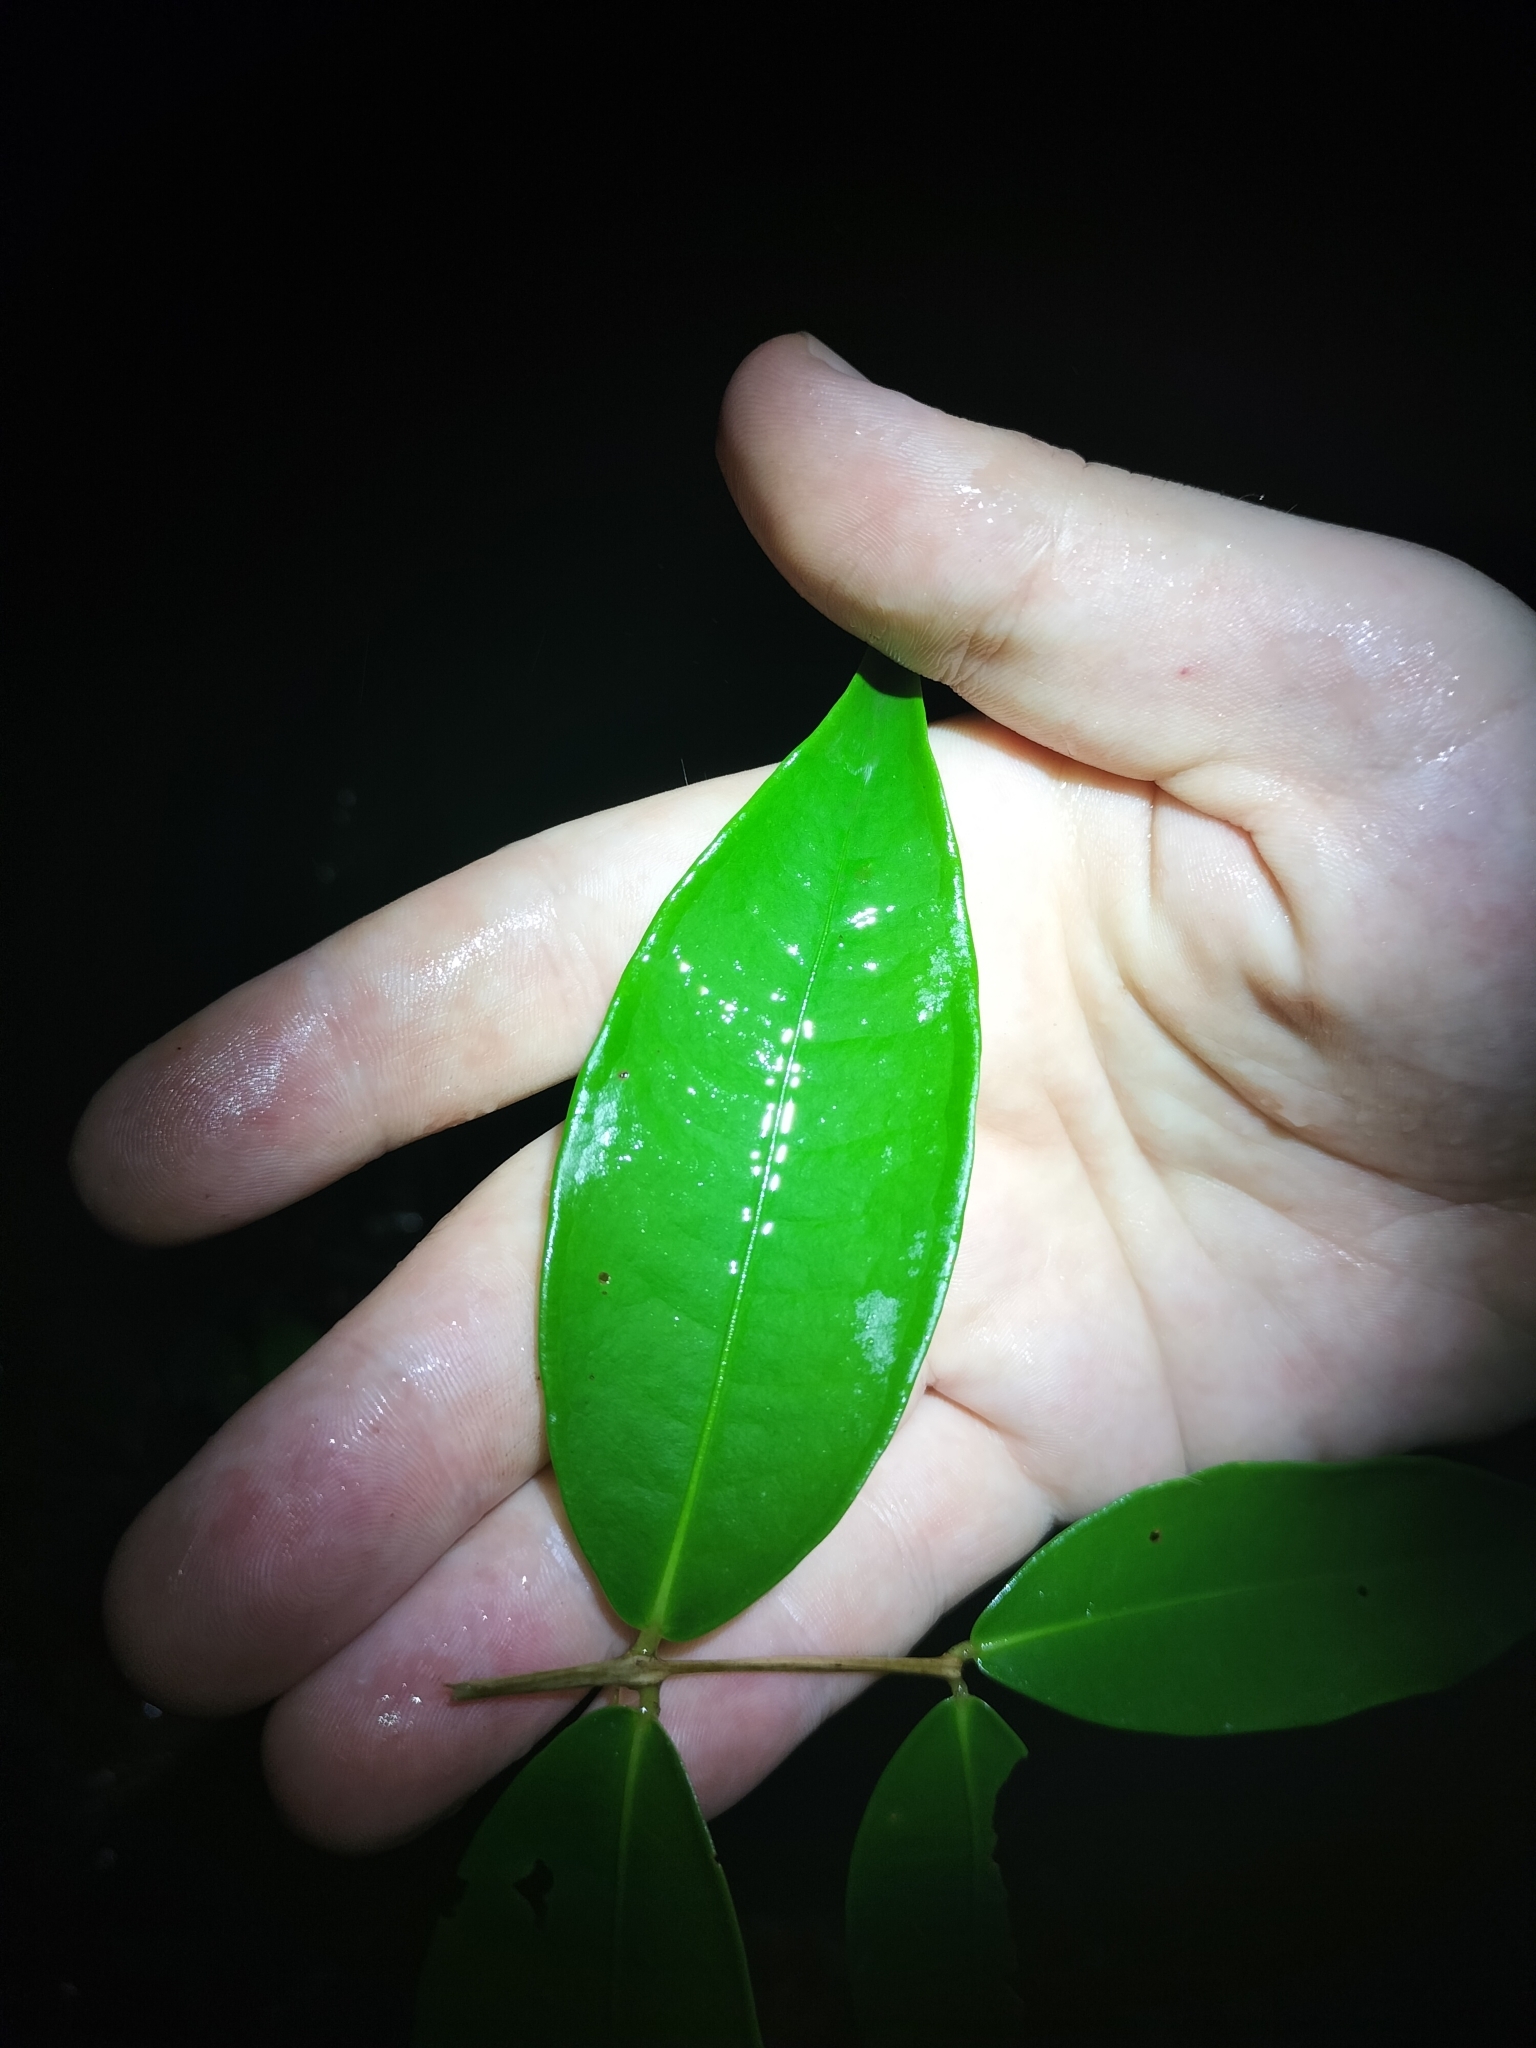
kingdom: Plantae
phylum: Tracheophyta
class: Magnoliopsida
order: Myrtales
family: Myrtaceae
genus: Syzygium
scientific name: Syzygium oleosum
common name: Oily satin-ash
